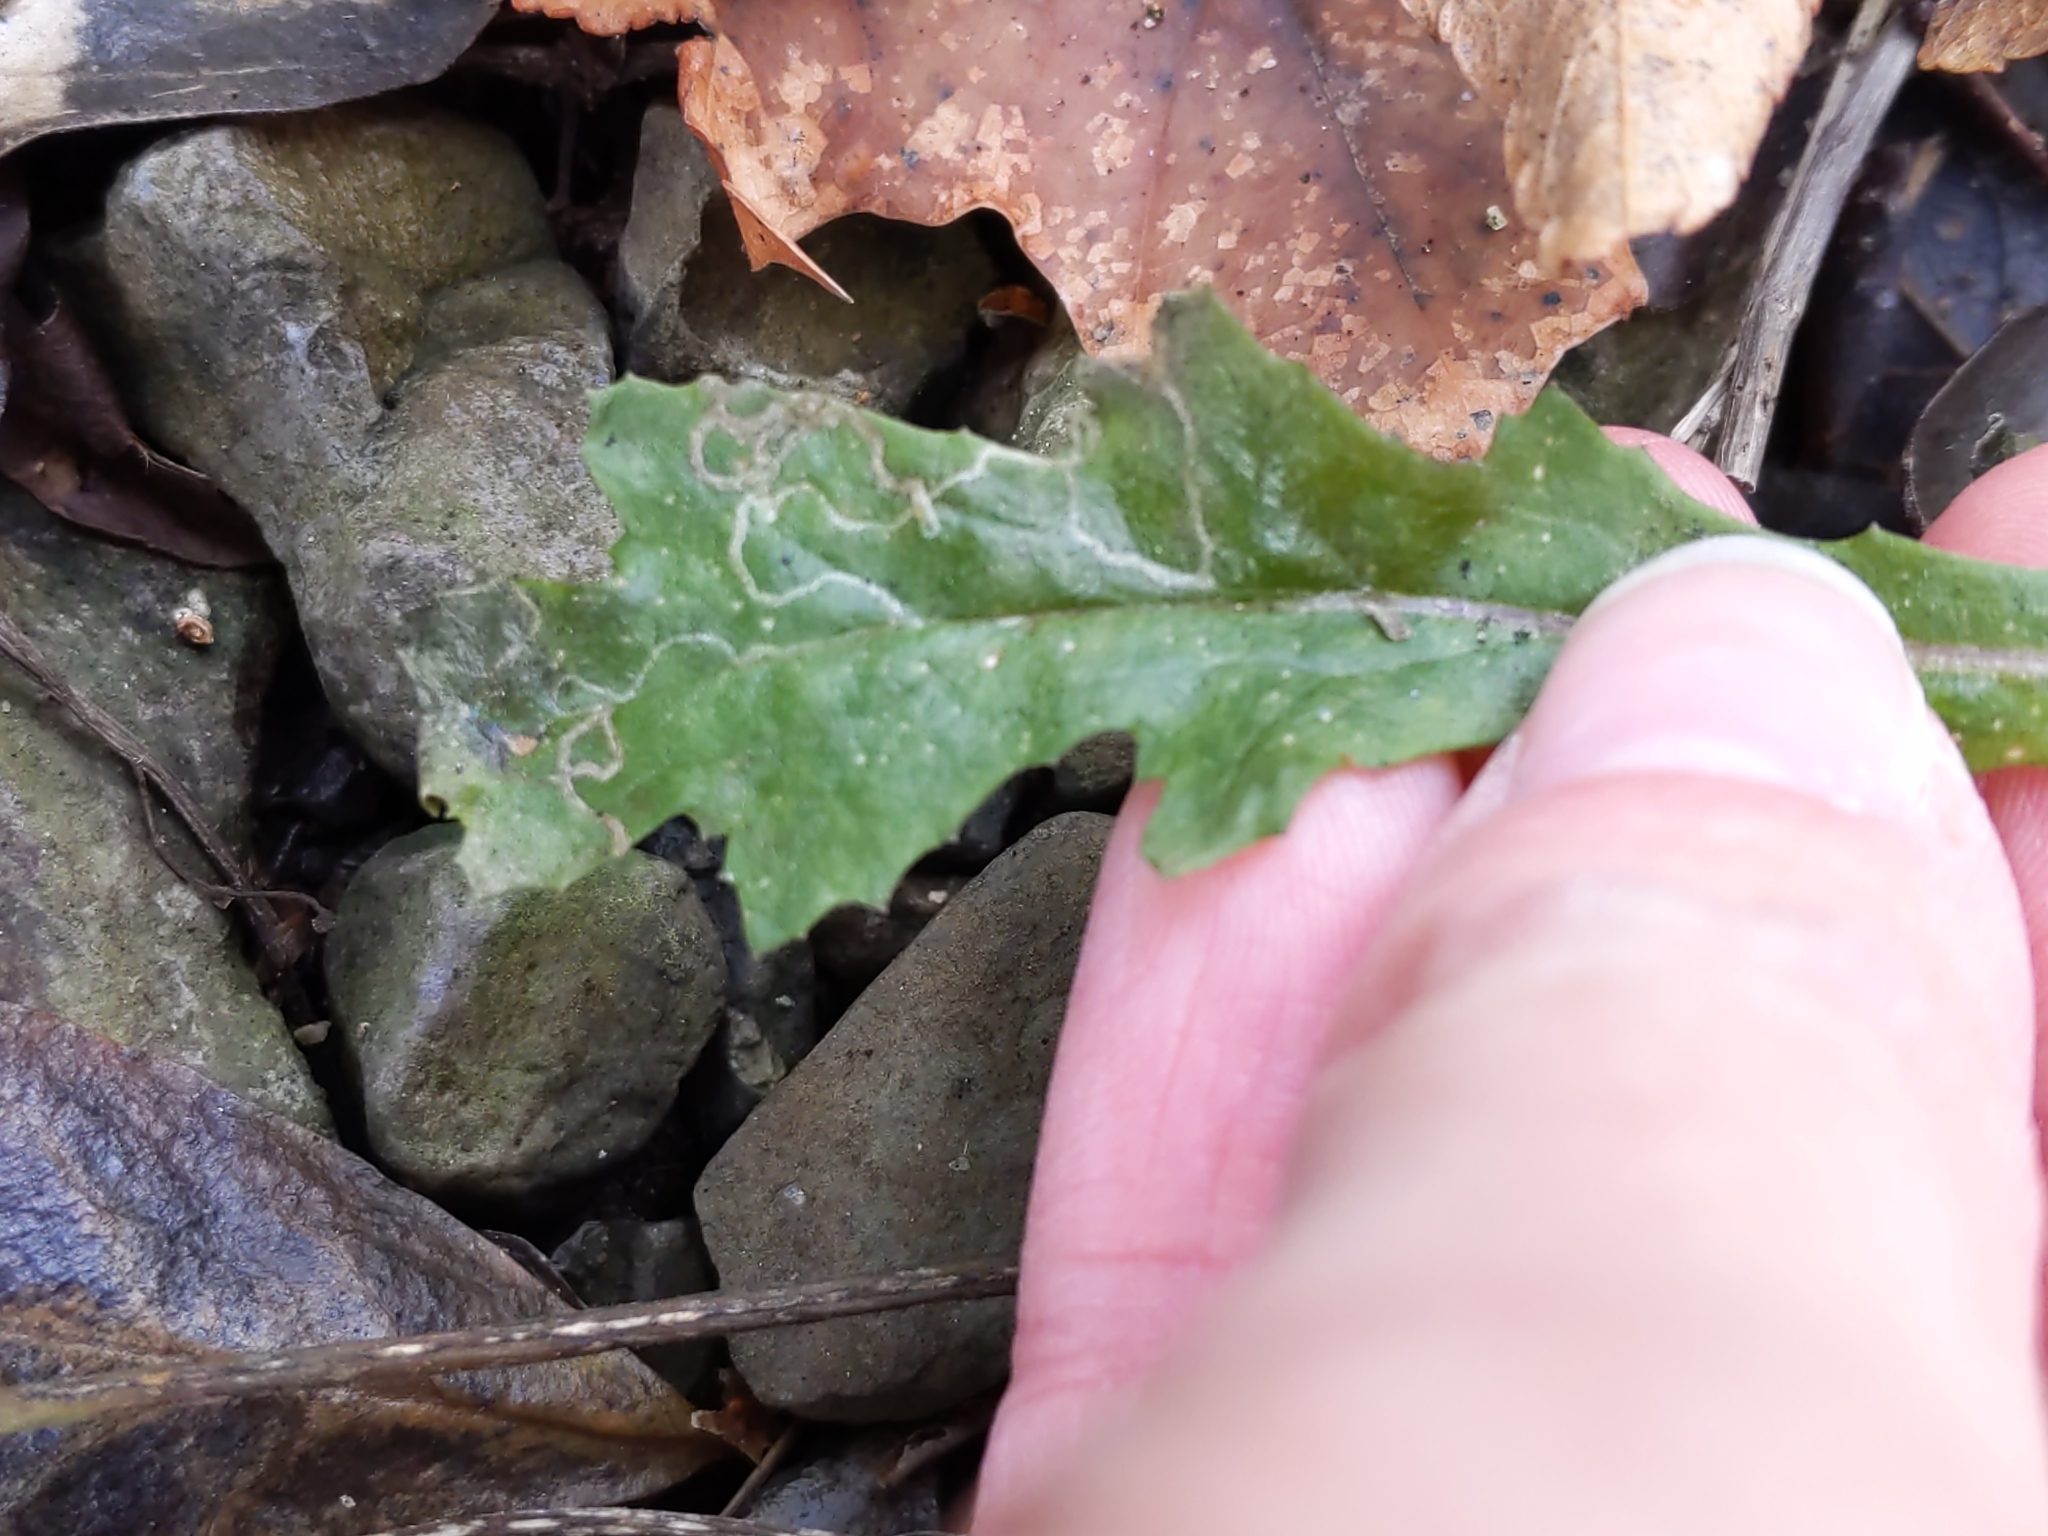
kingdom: Animalia
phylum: Arthropoda
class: Insecta
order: Lepidoptera
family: Gracillariidae
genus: Phyllocnistis
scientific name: Phyllocnistis insignis
